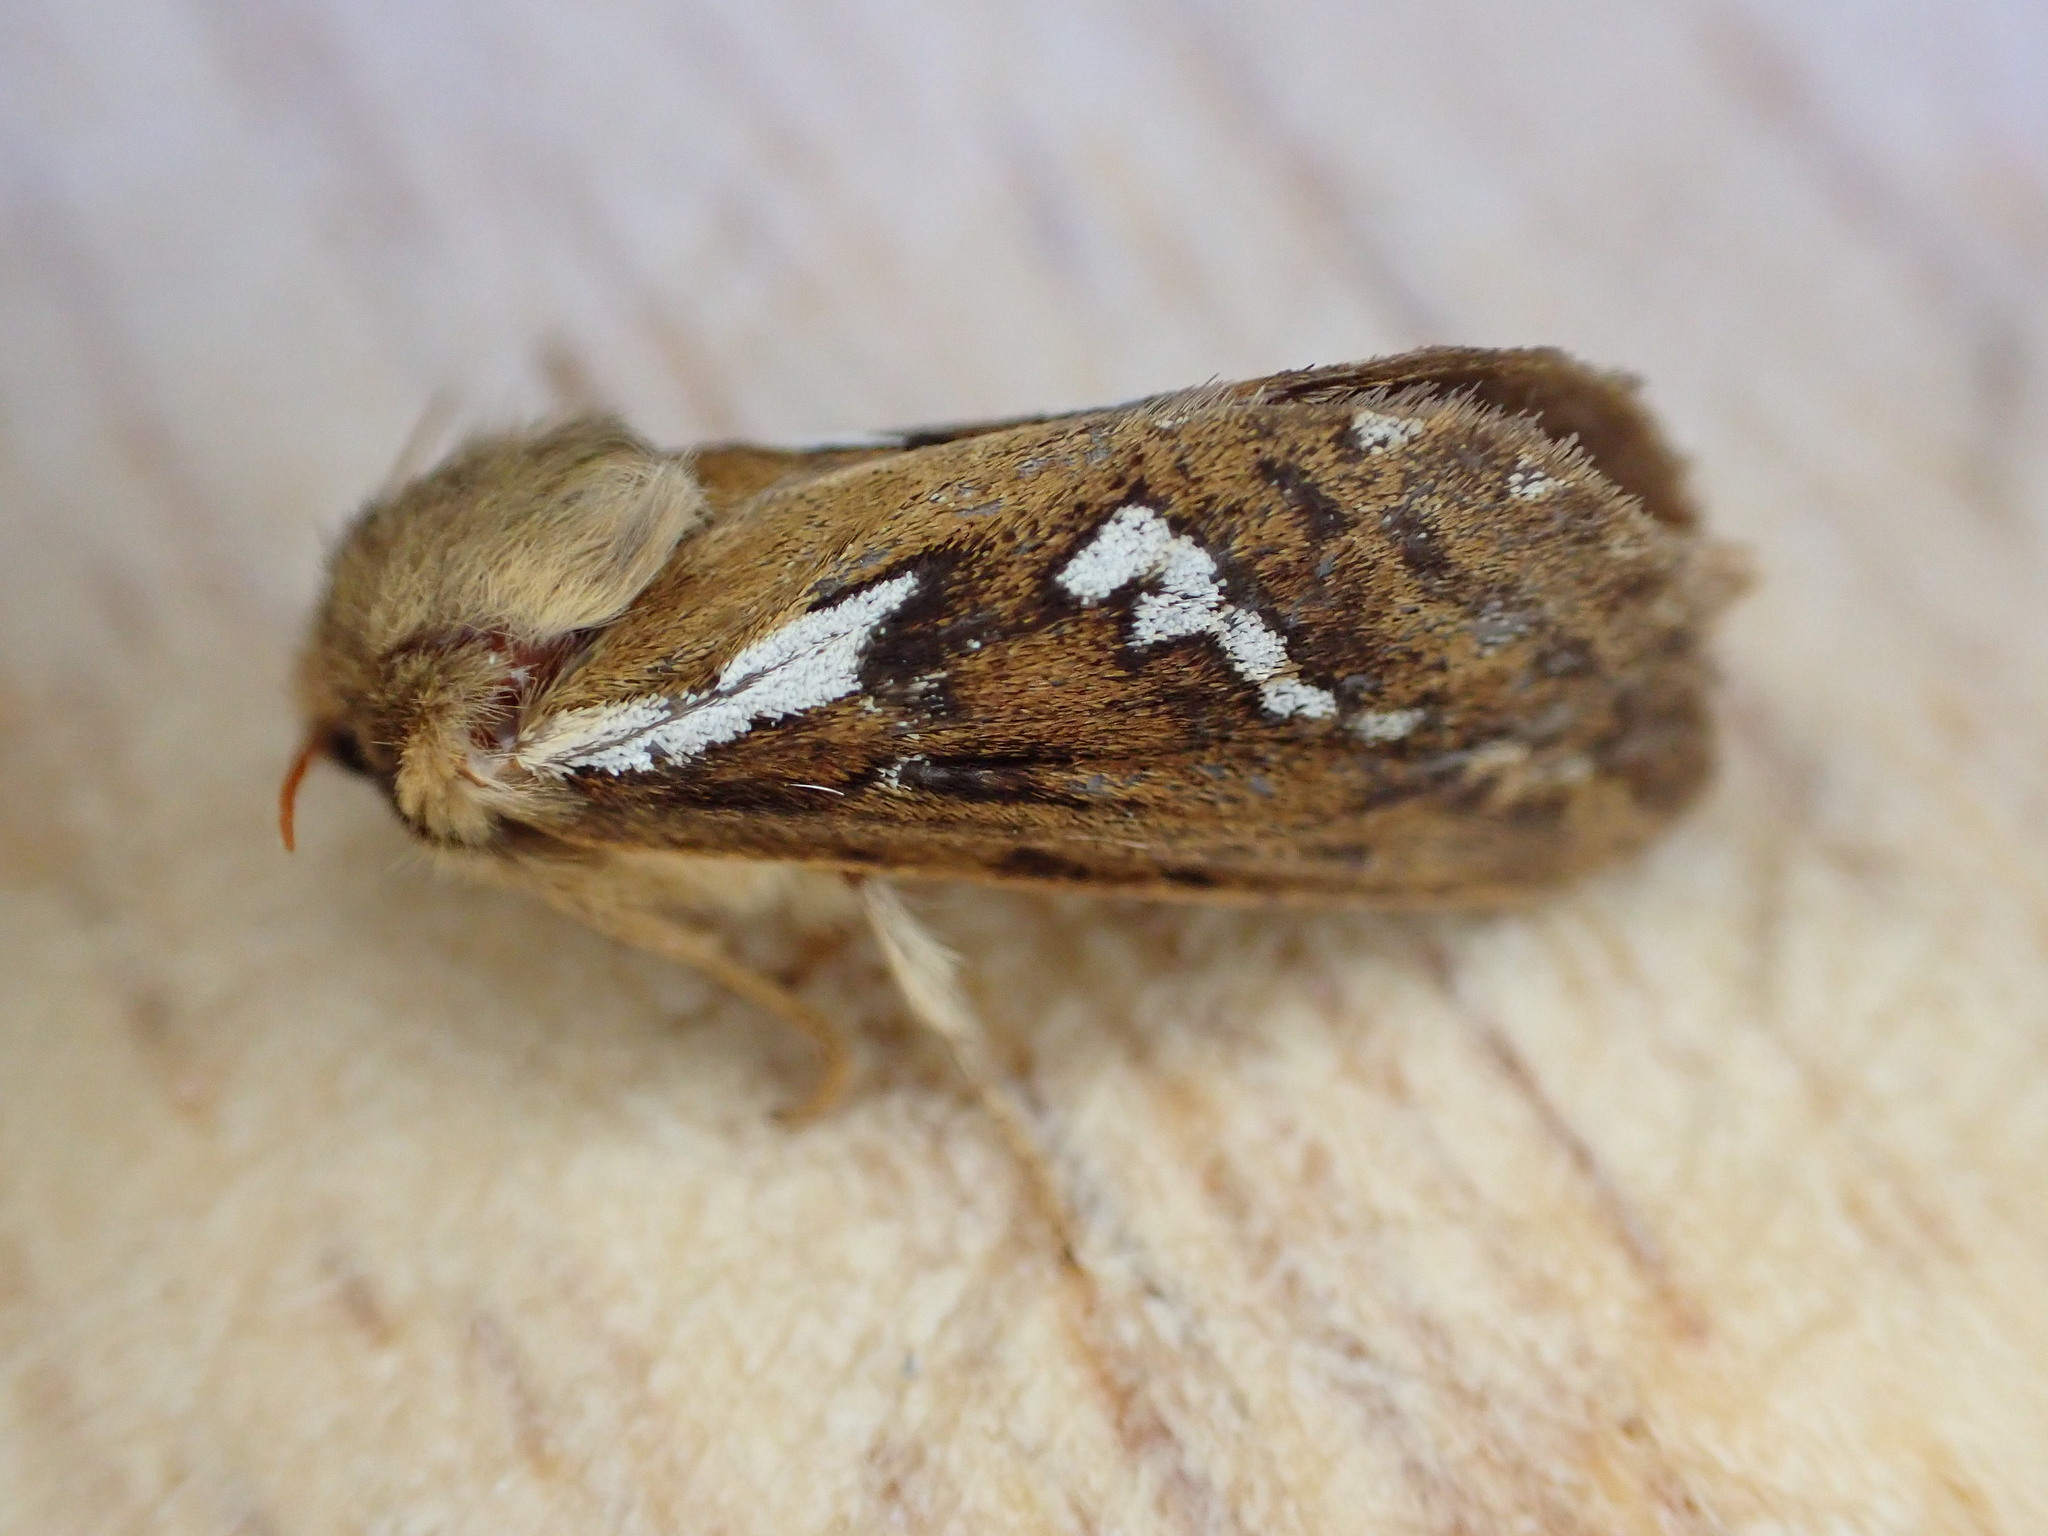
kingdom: Animalia
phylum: Arthropoda
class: Insecta
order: Lepidoptera
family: Hepialidae
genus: Korscheltellus
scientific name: Korscheltellus lupulina
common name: Common swift
